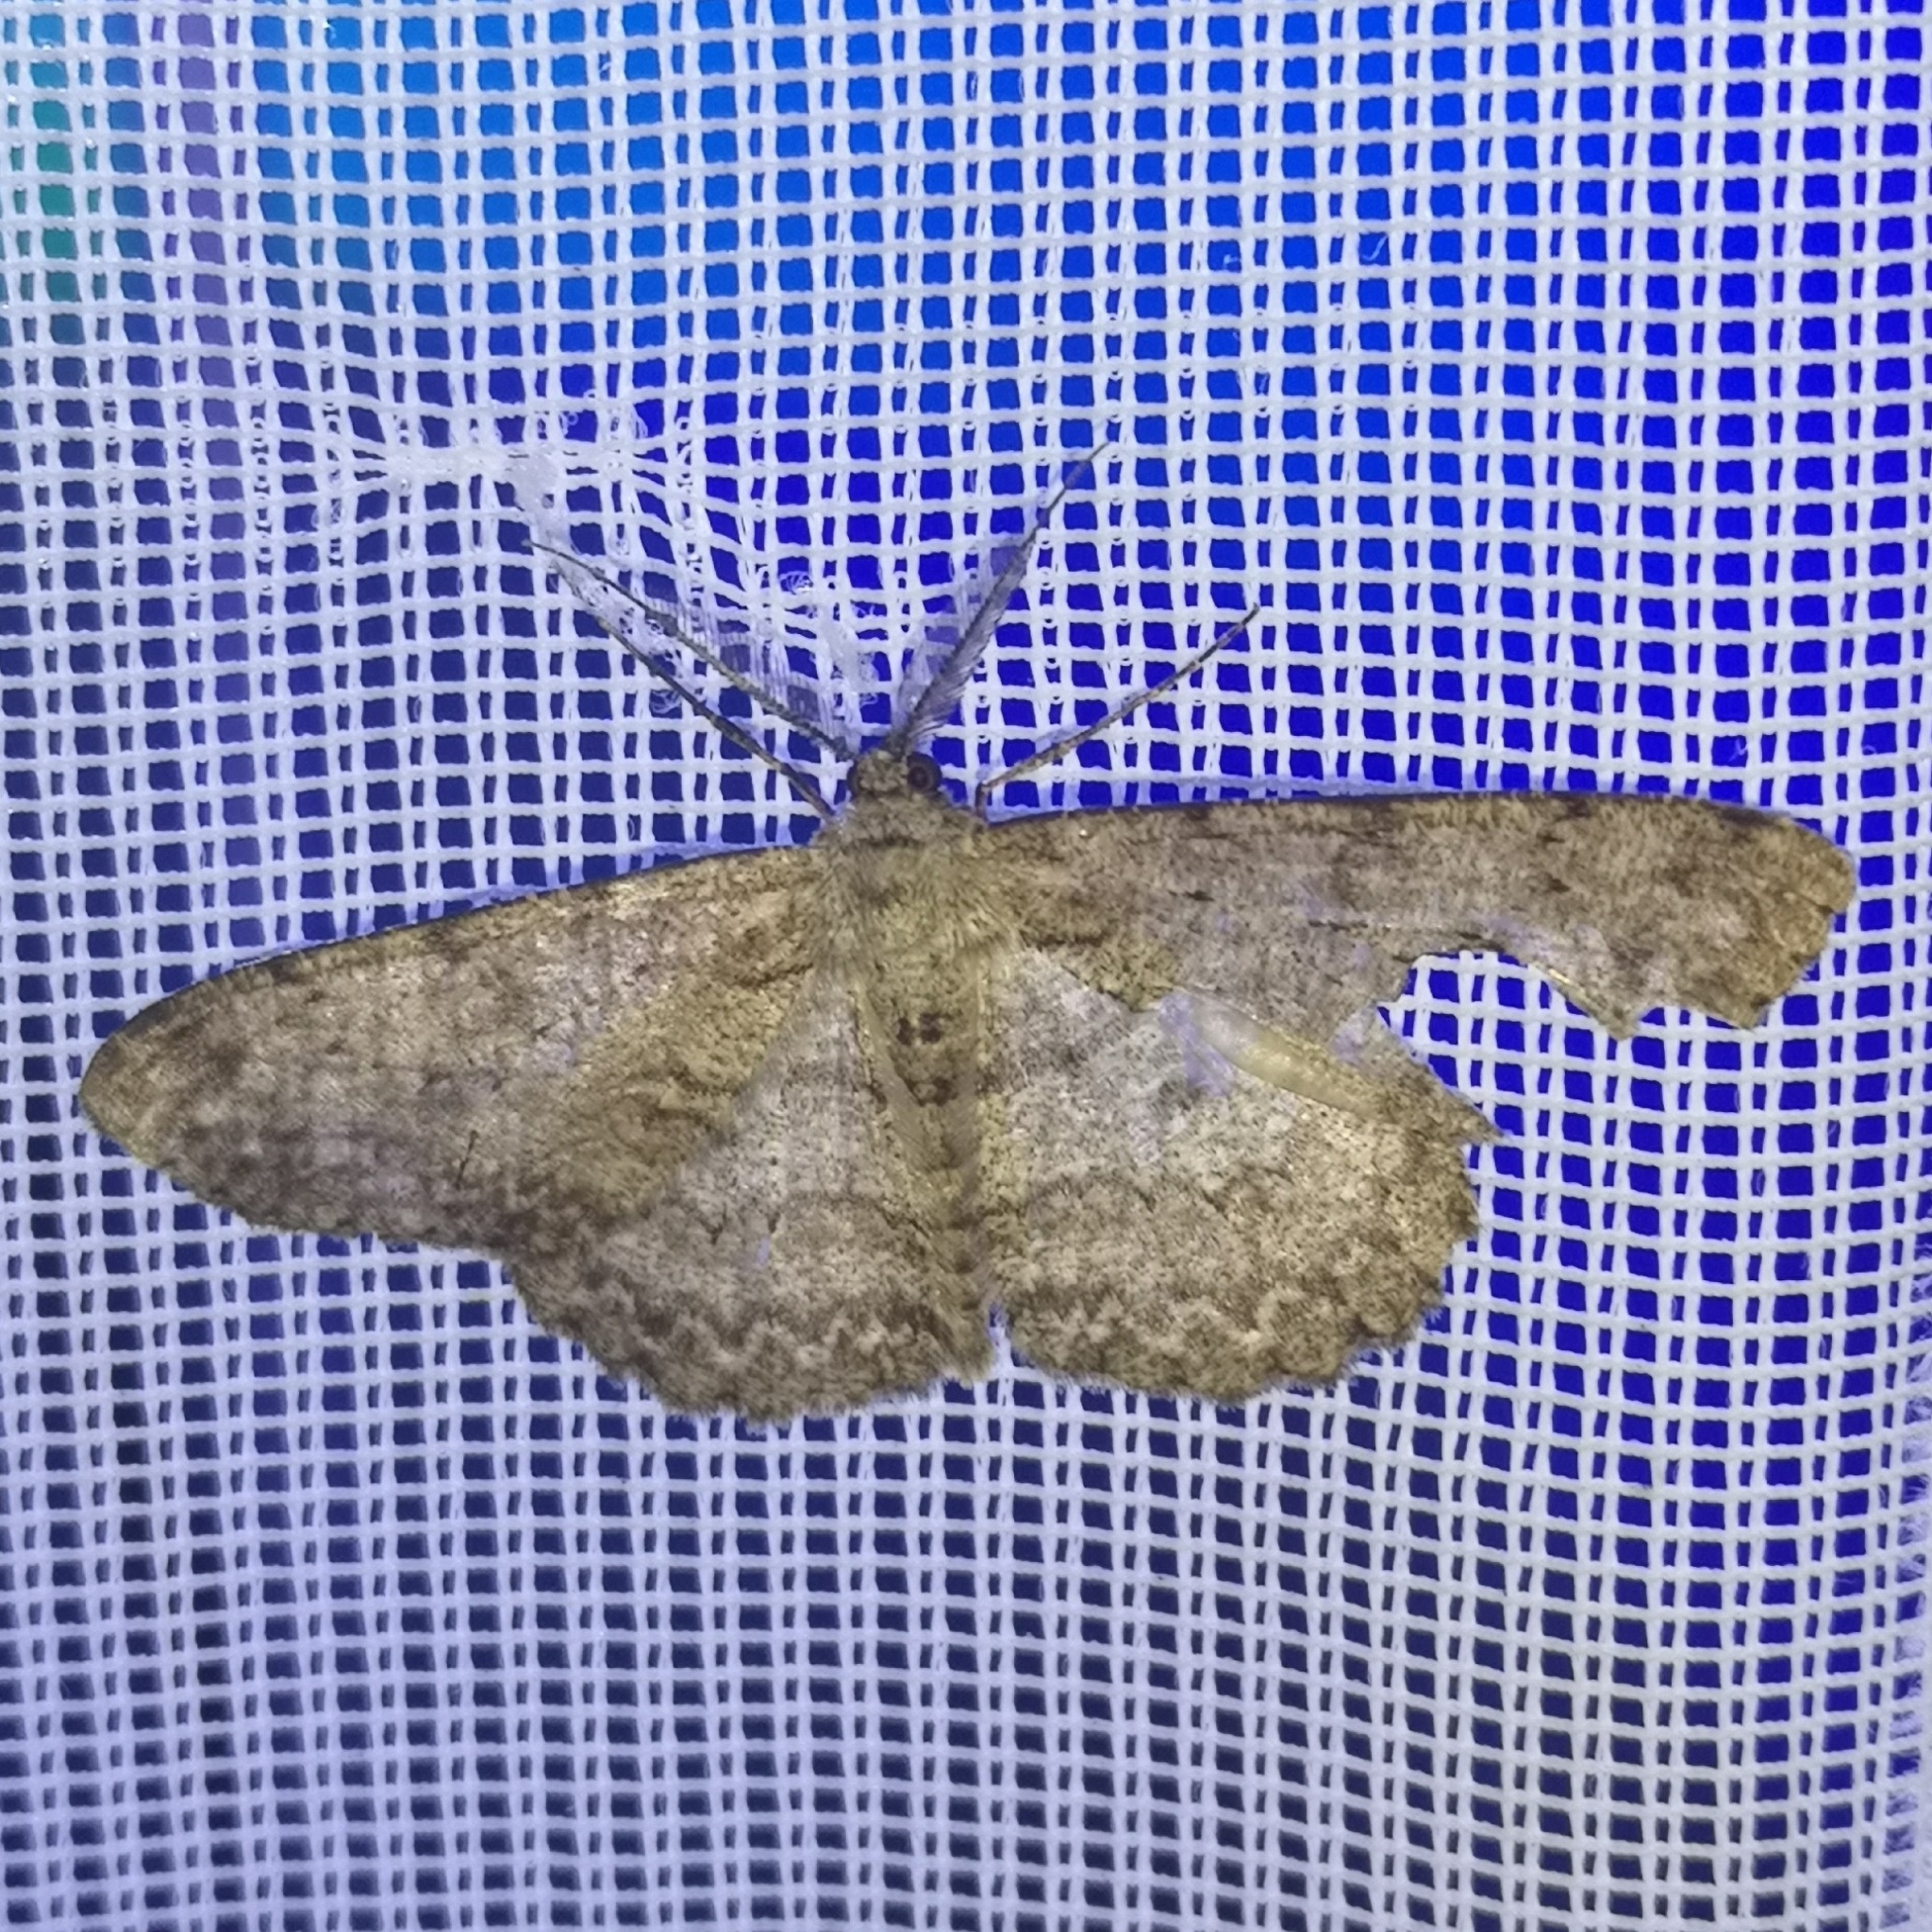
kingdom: Animalia
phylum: Arthropoda
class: Insecta
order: Lepidoptera
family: Geometridae
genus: Hypomecis
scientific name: Hypomecis punctinalis
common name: Pale oak beauty
